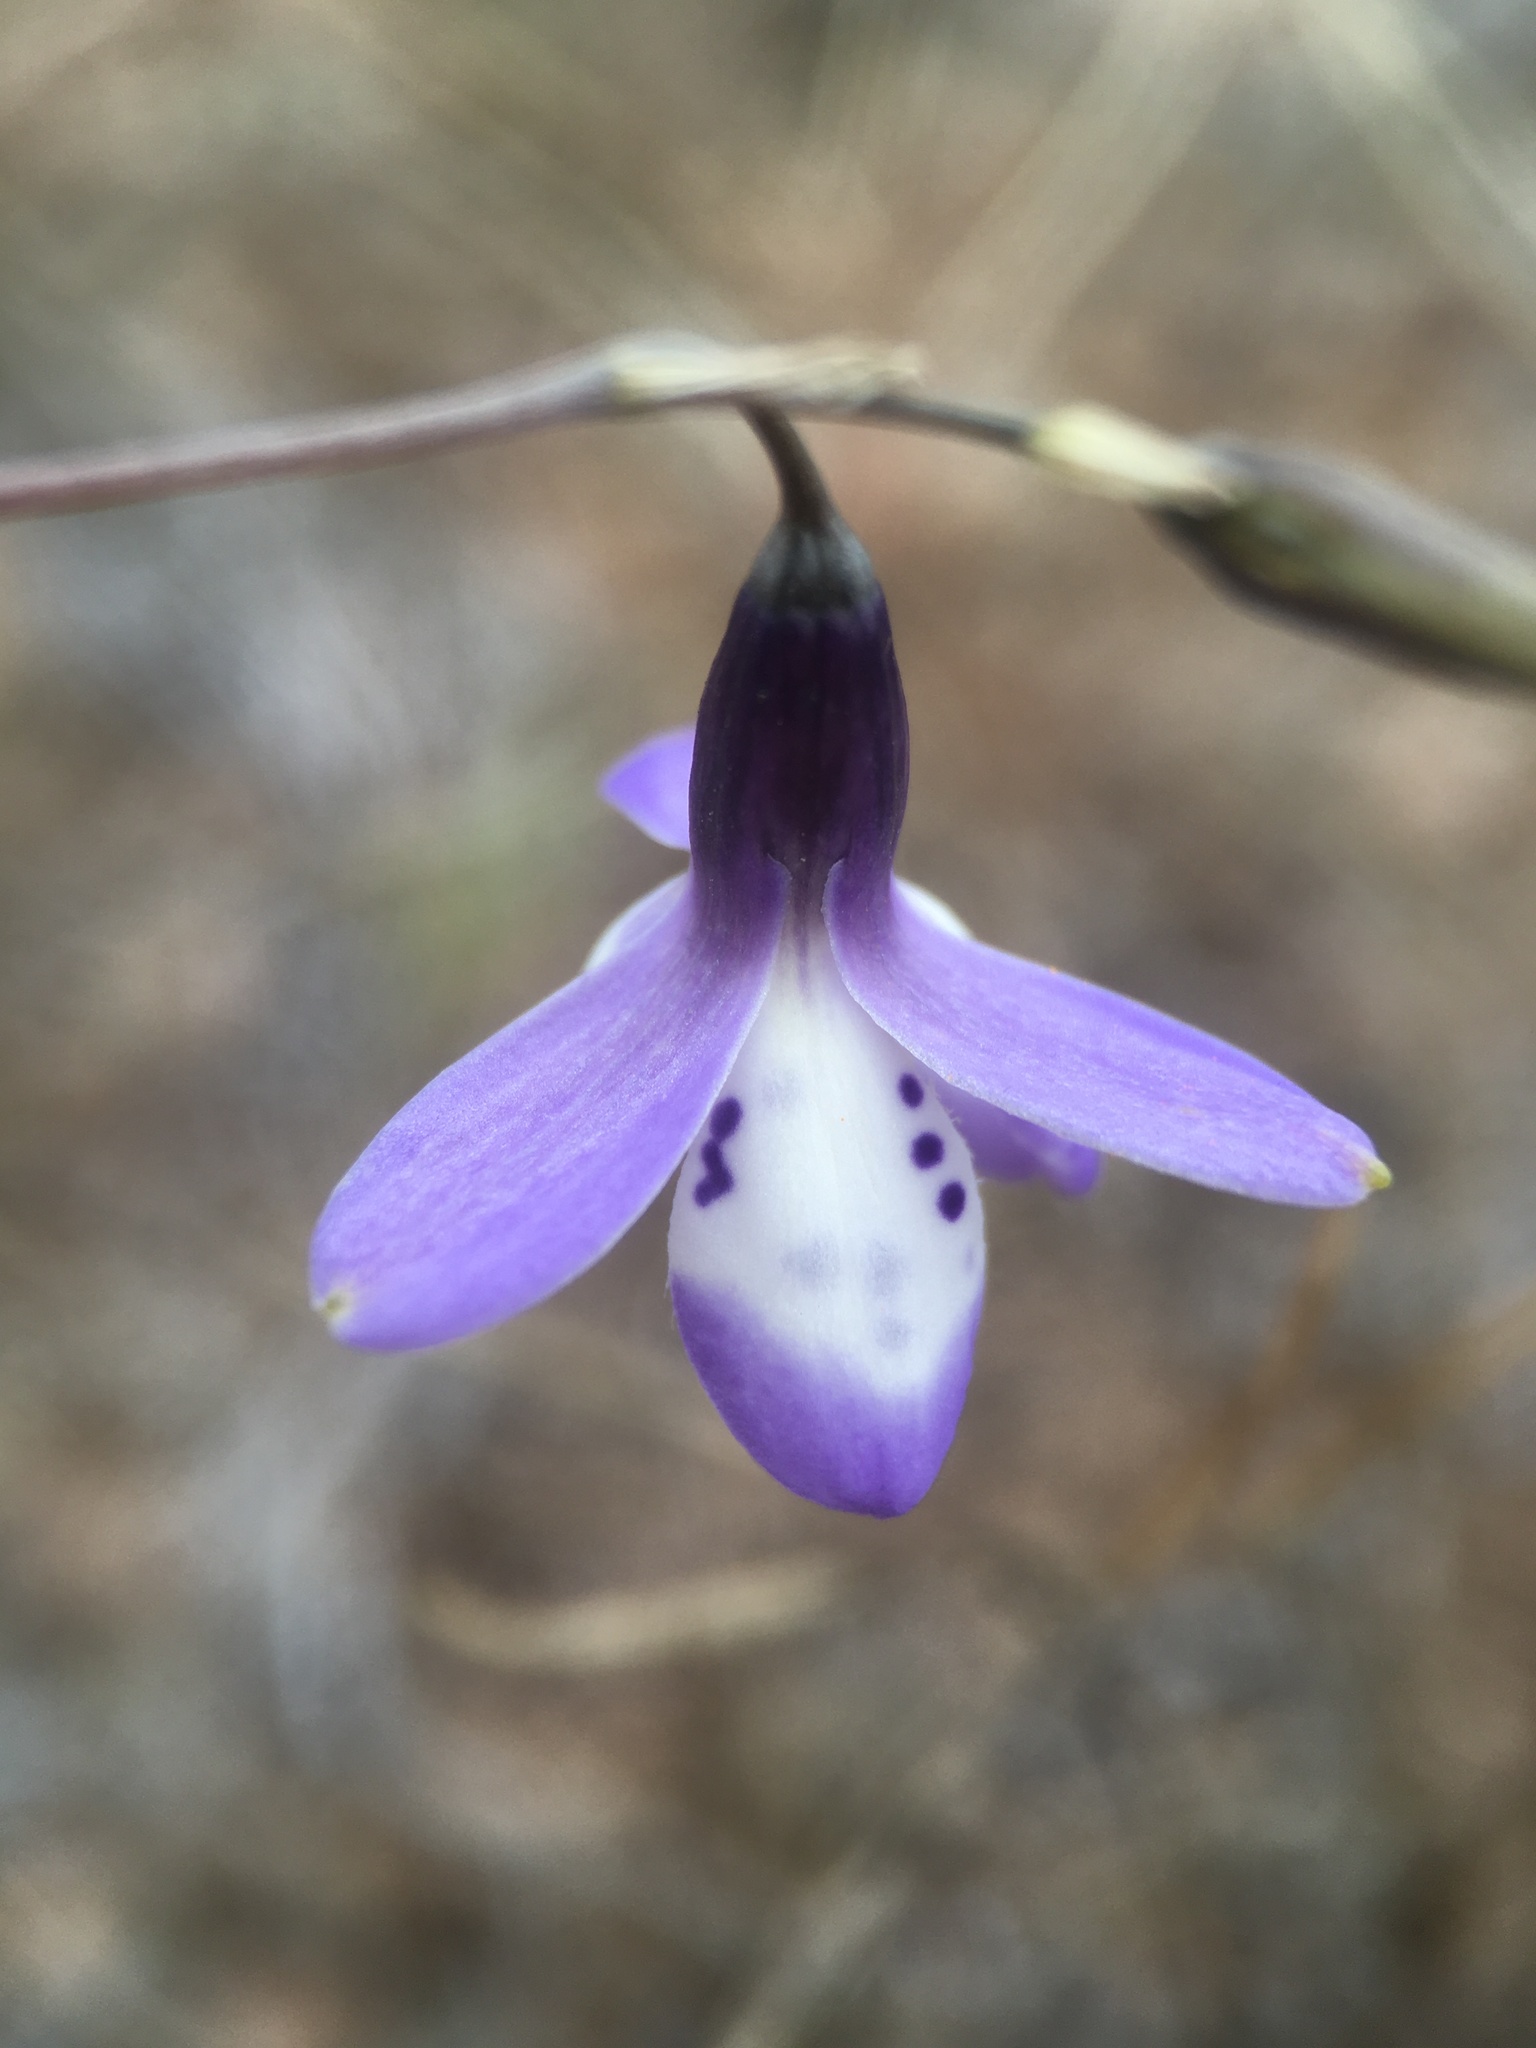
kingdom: Plantae
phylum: Tracheophyta
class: Liliopsida
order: Asparagales
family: Tecophilaeaceae
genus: Conanthera
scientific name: Conanthera campanulata
